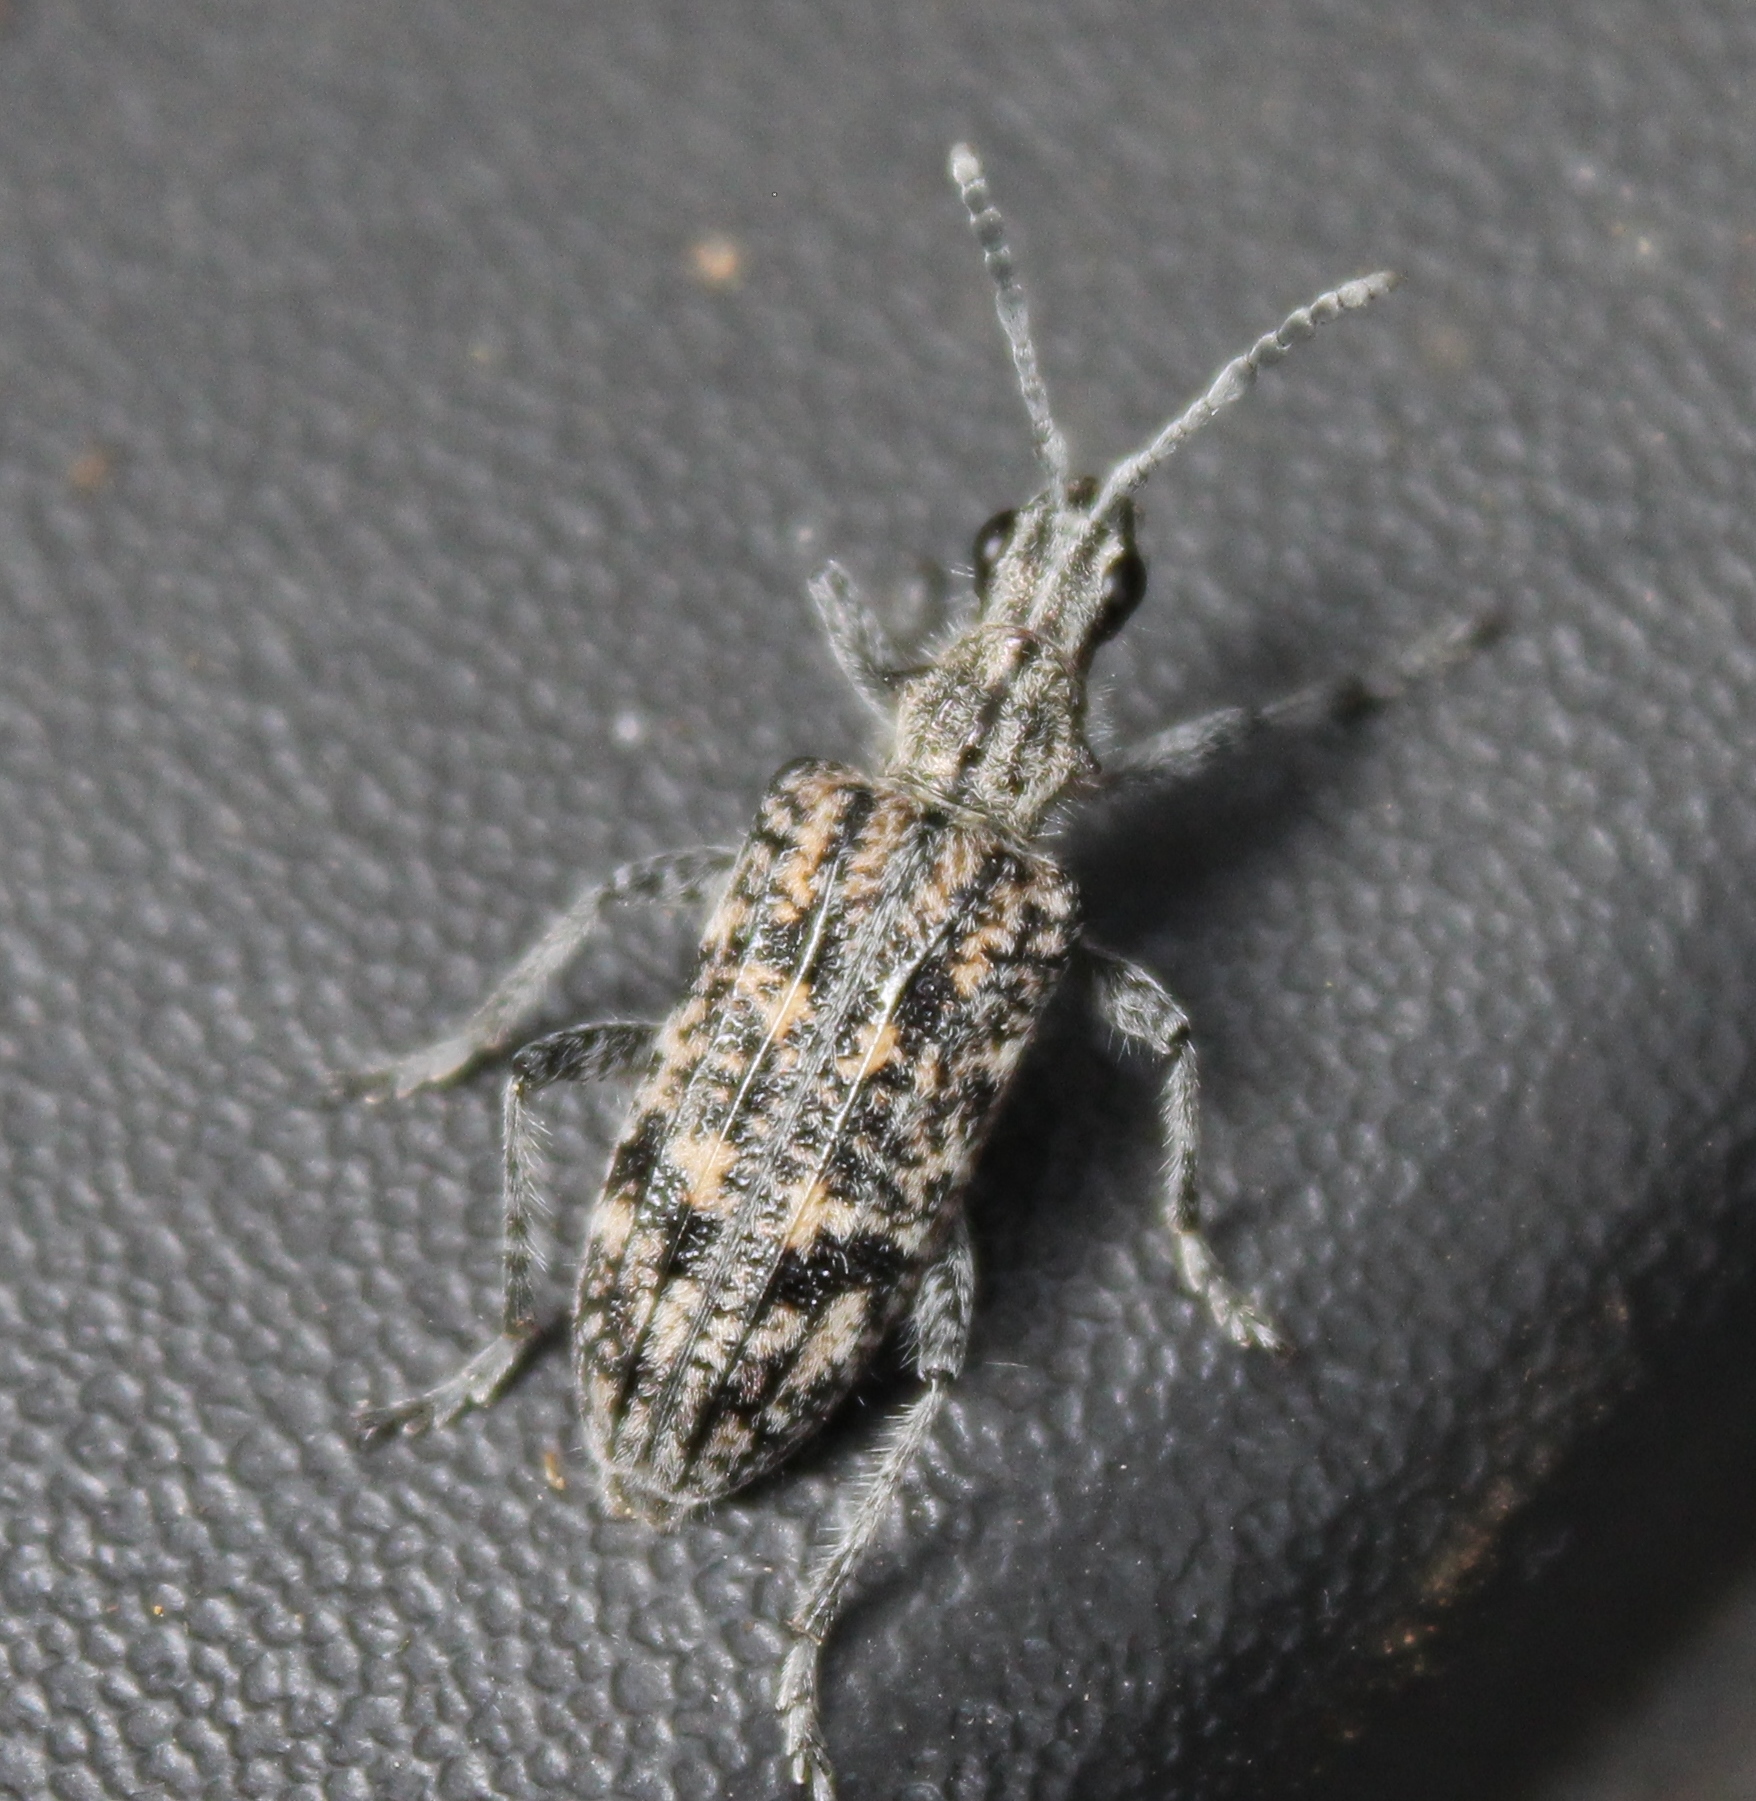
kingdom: Animalia
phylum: Arthropoda
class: Insecta
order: Coleoptera
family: Cerambycidae
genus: Rhagium
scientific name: Rhagium inquisitor
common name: Ribbed pine borer
